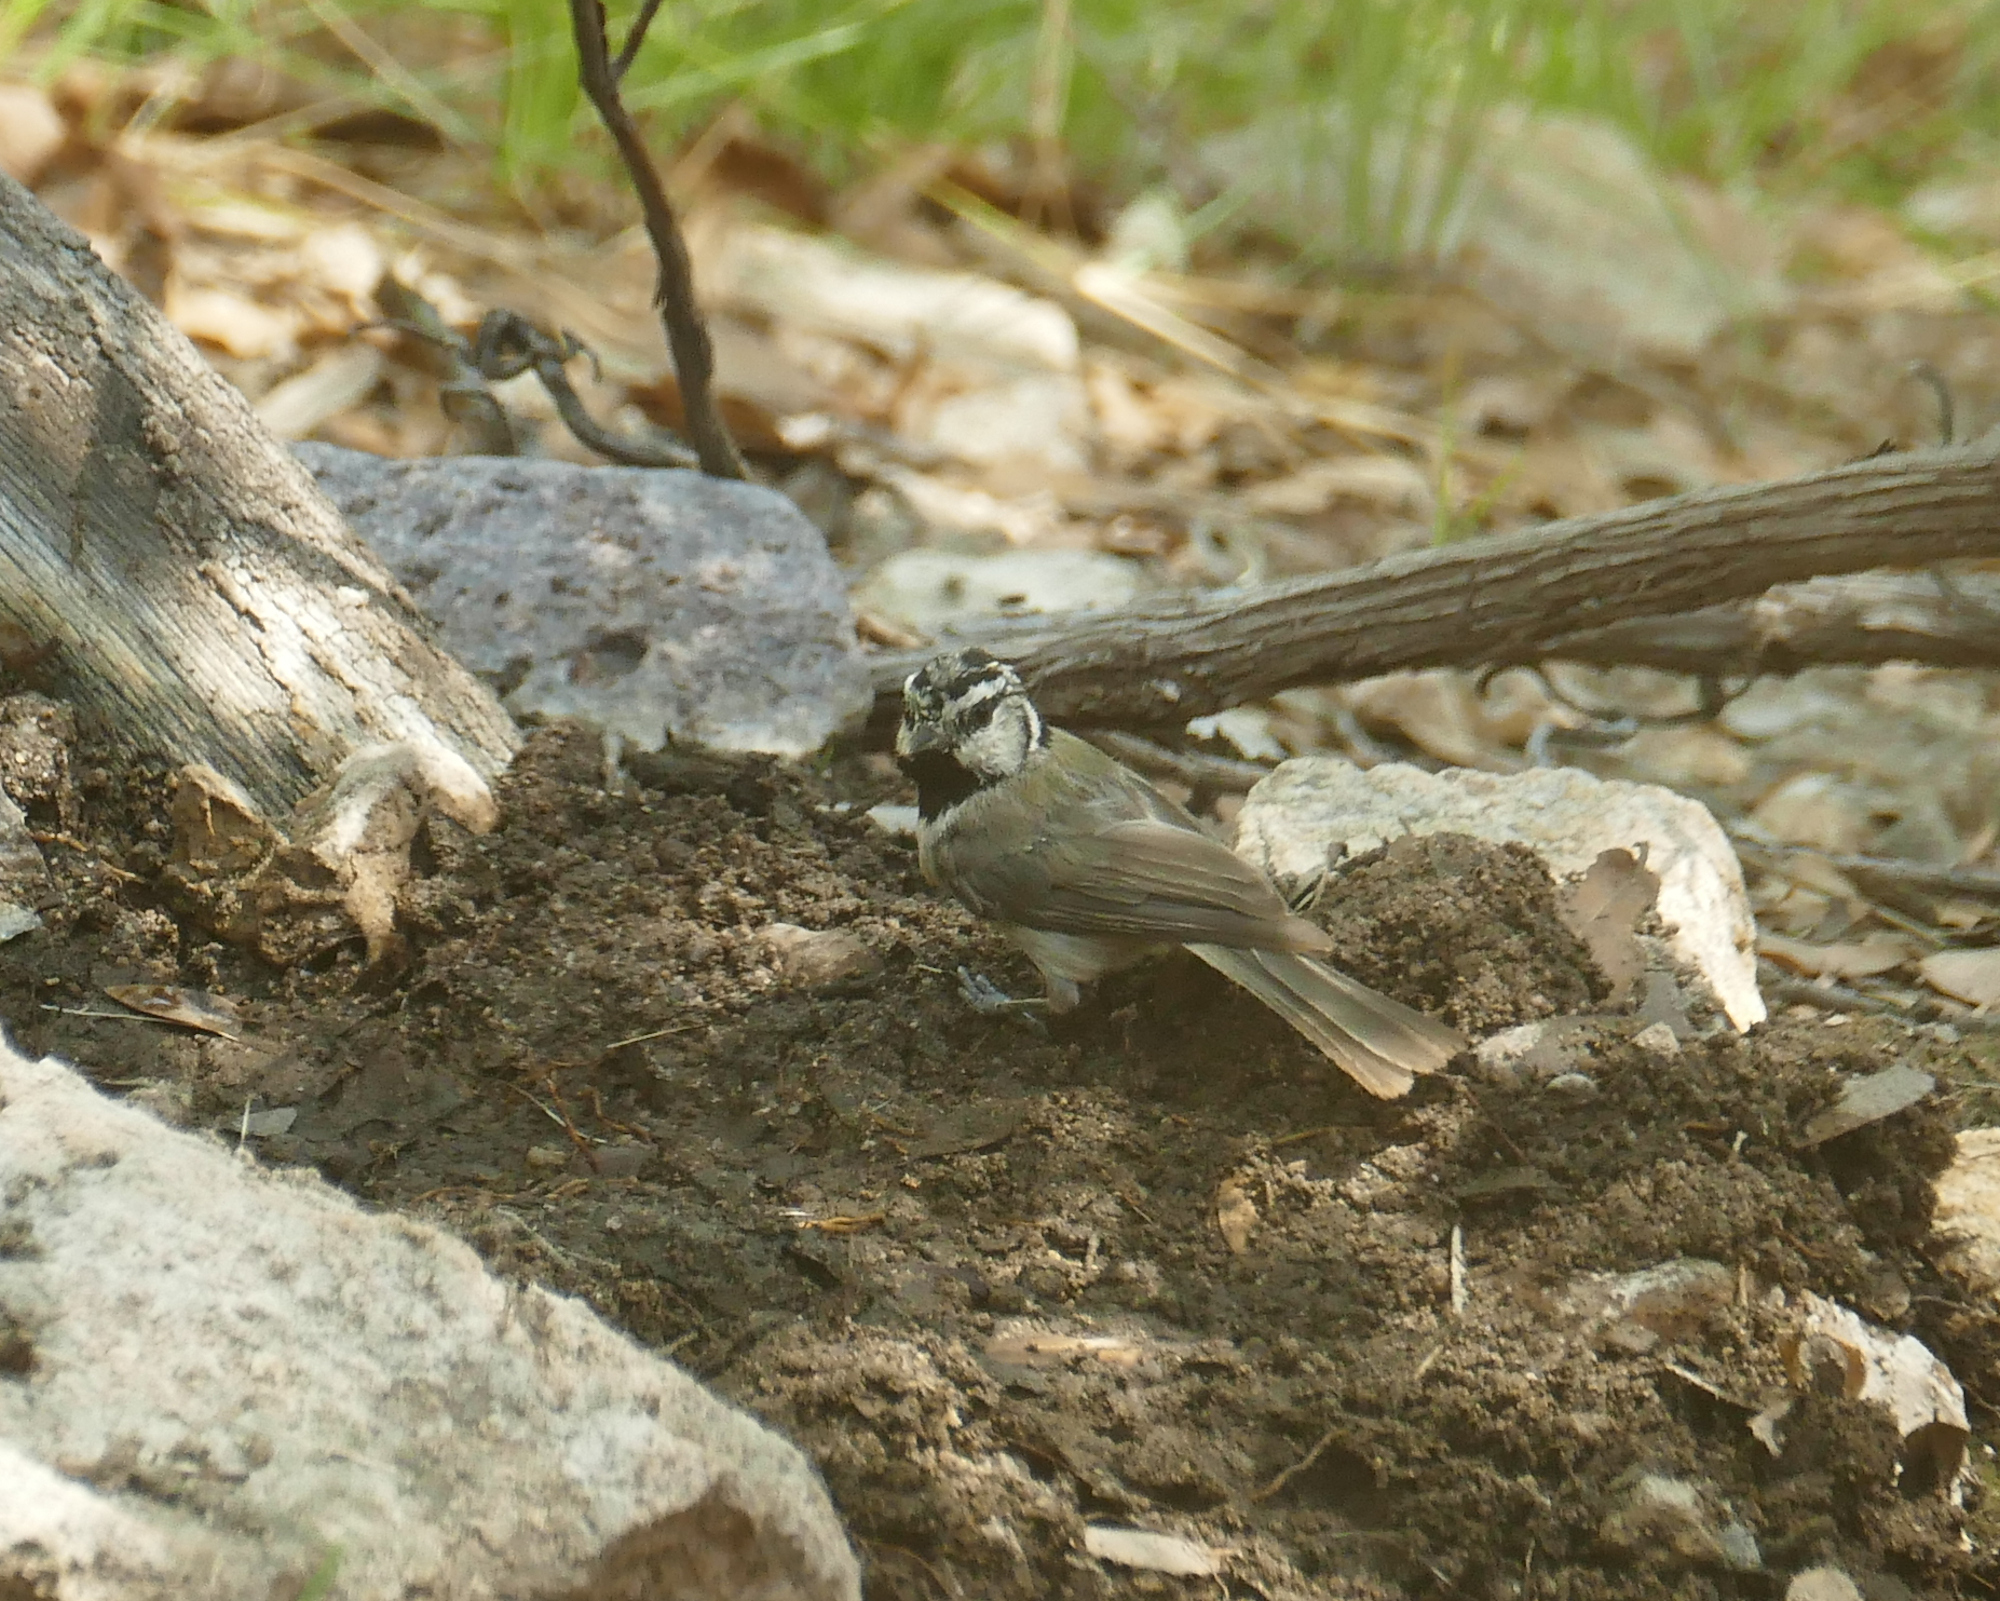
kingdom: Animalia
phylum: Chordata
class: Aves
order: Passeriformes
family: Paridae
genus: Baeolophus
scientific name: Baeolophus wollweberi
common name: Bridled titmouse
